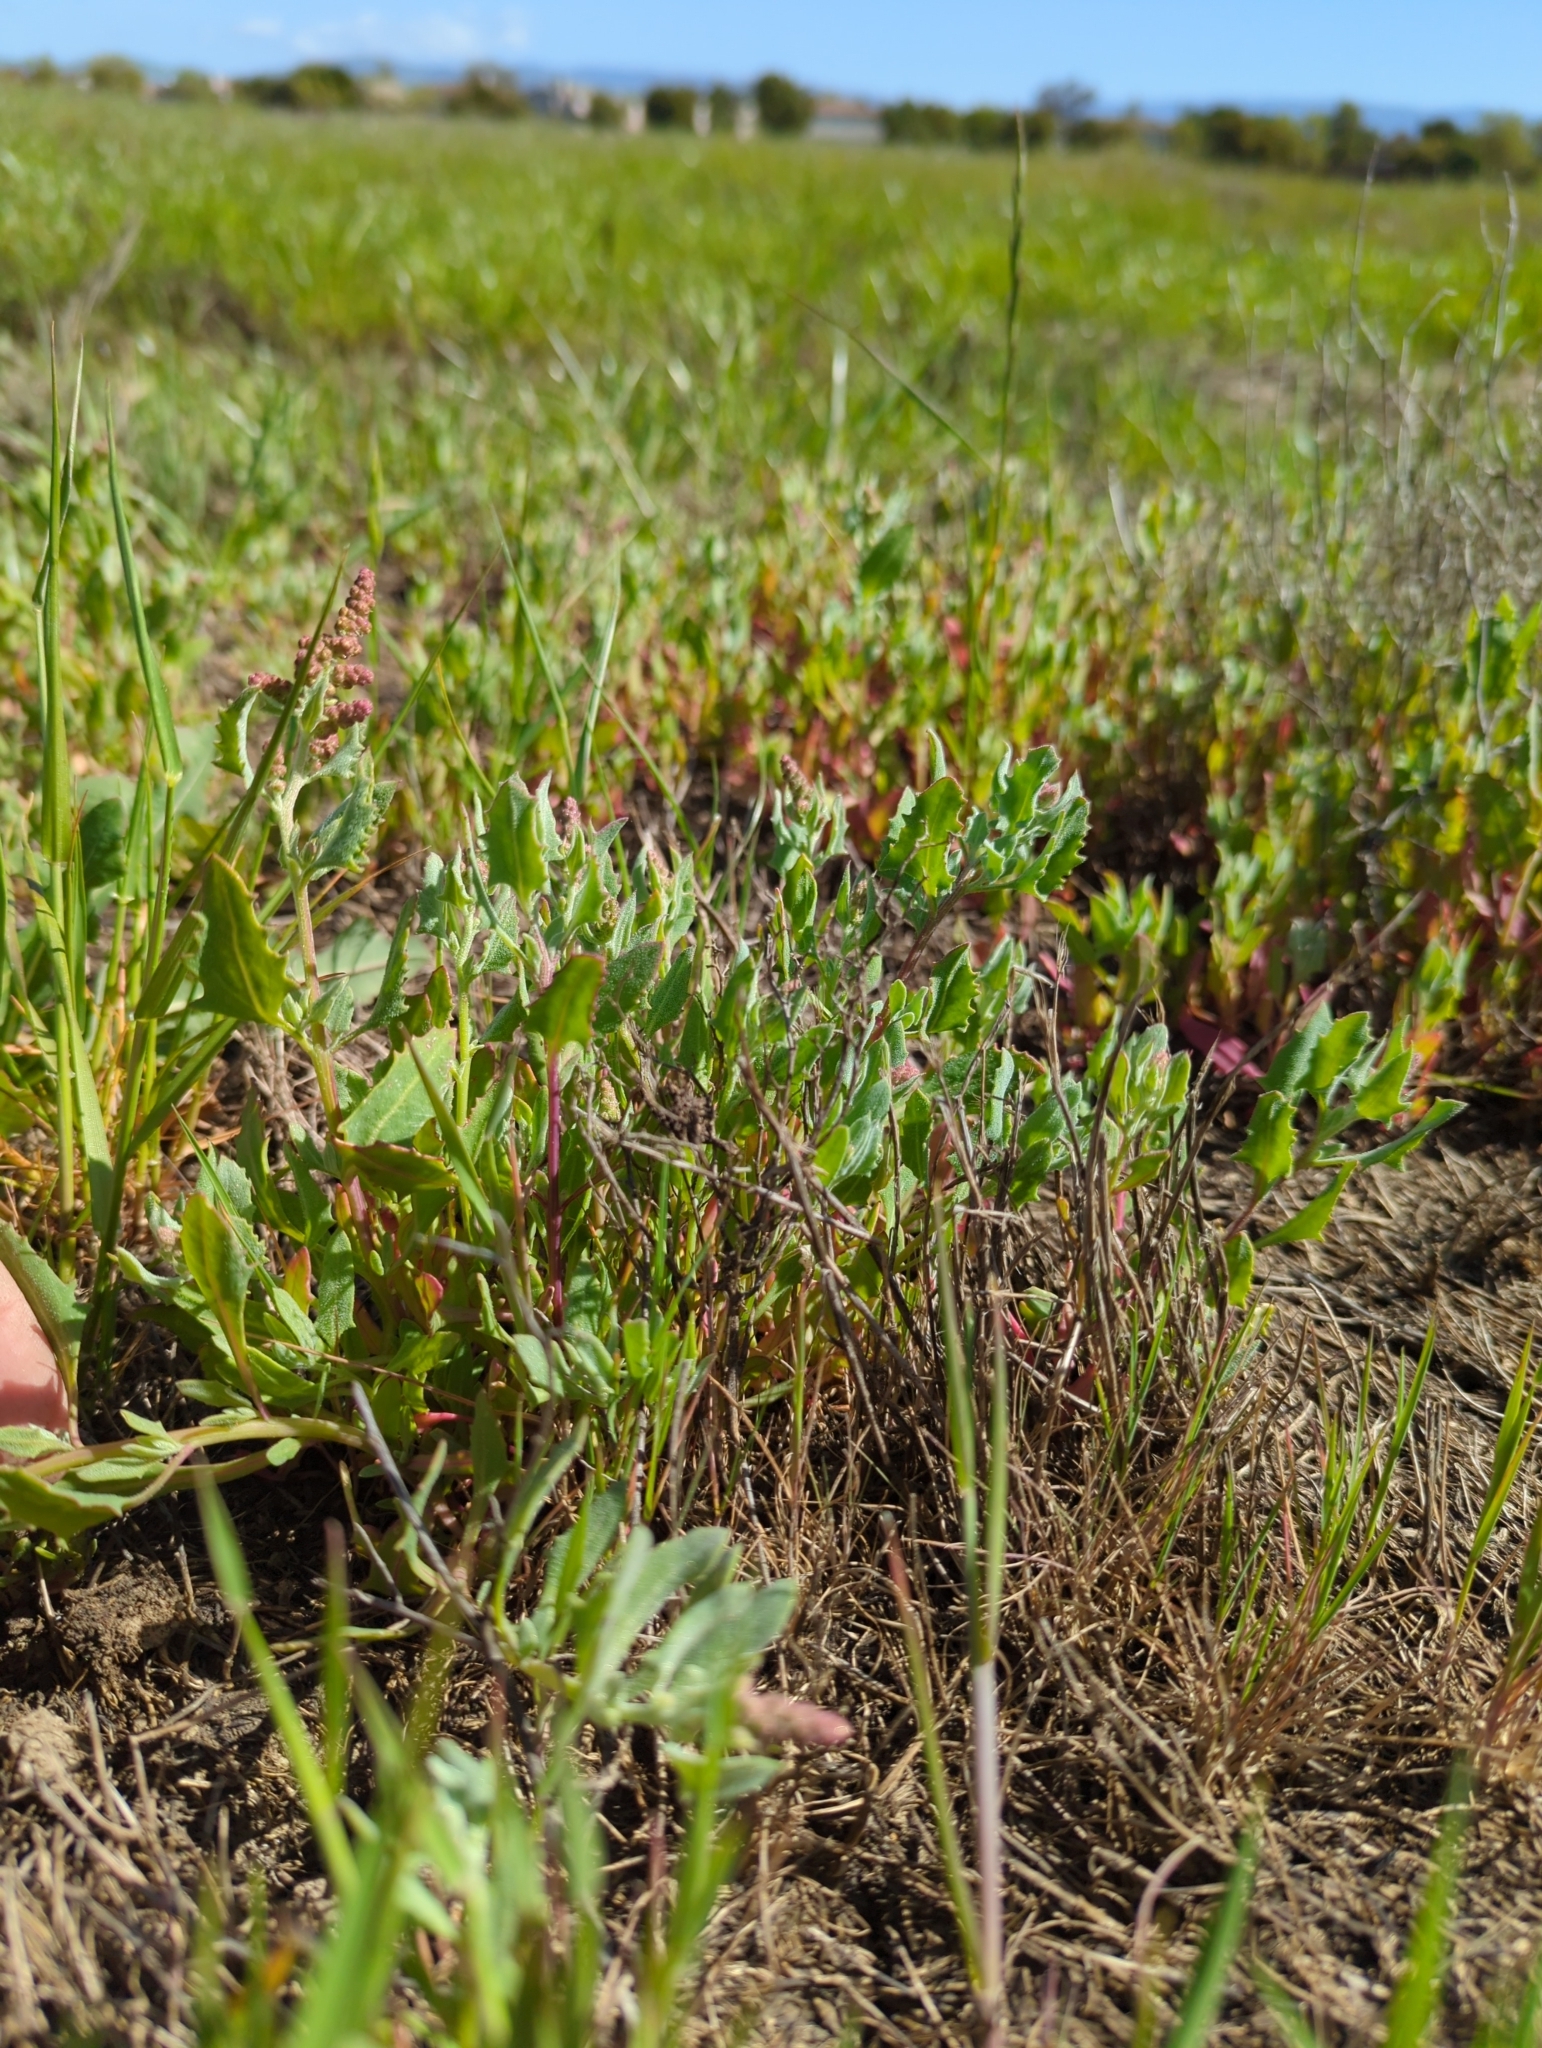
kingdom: Plantae
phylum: Tracheophyta
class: Magnoliopsida
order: Caryophyllales
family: Amaranthaceae
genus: Extriplex
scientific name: Extriplex joaquinana
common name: San joaquin saltbush
